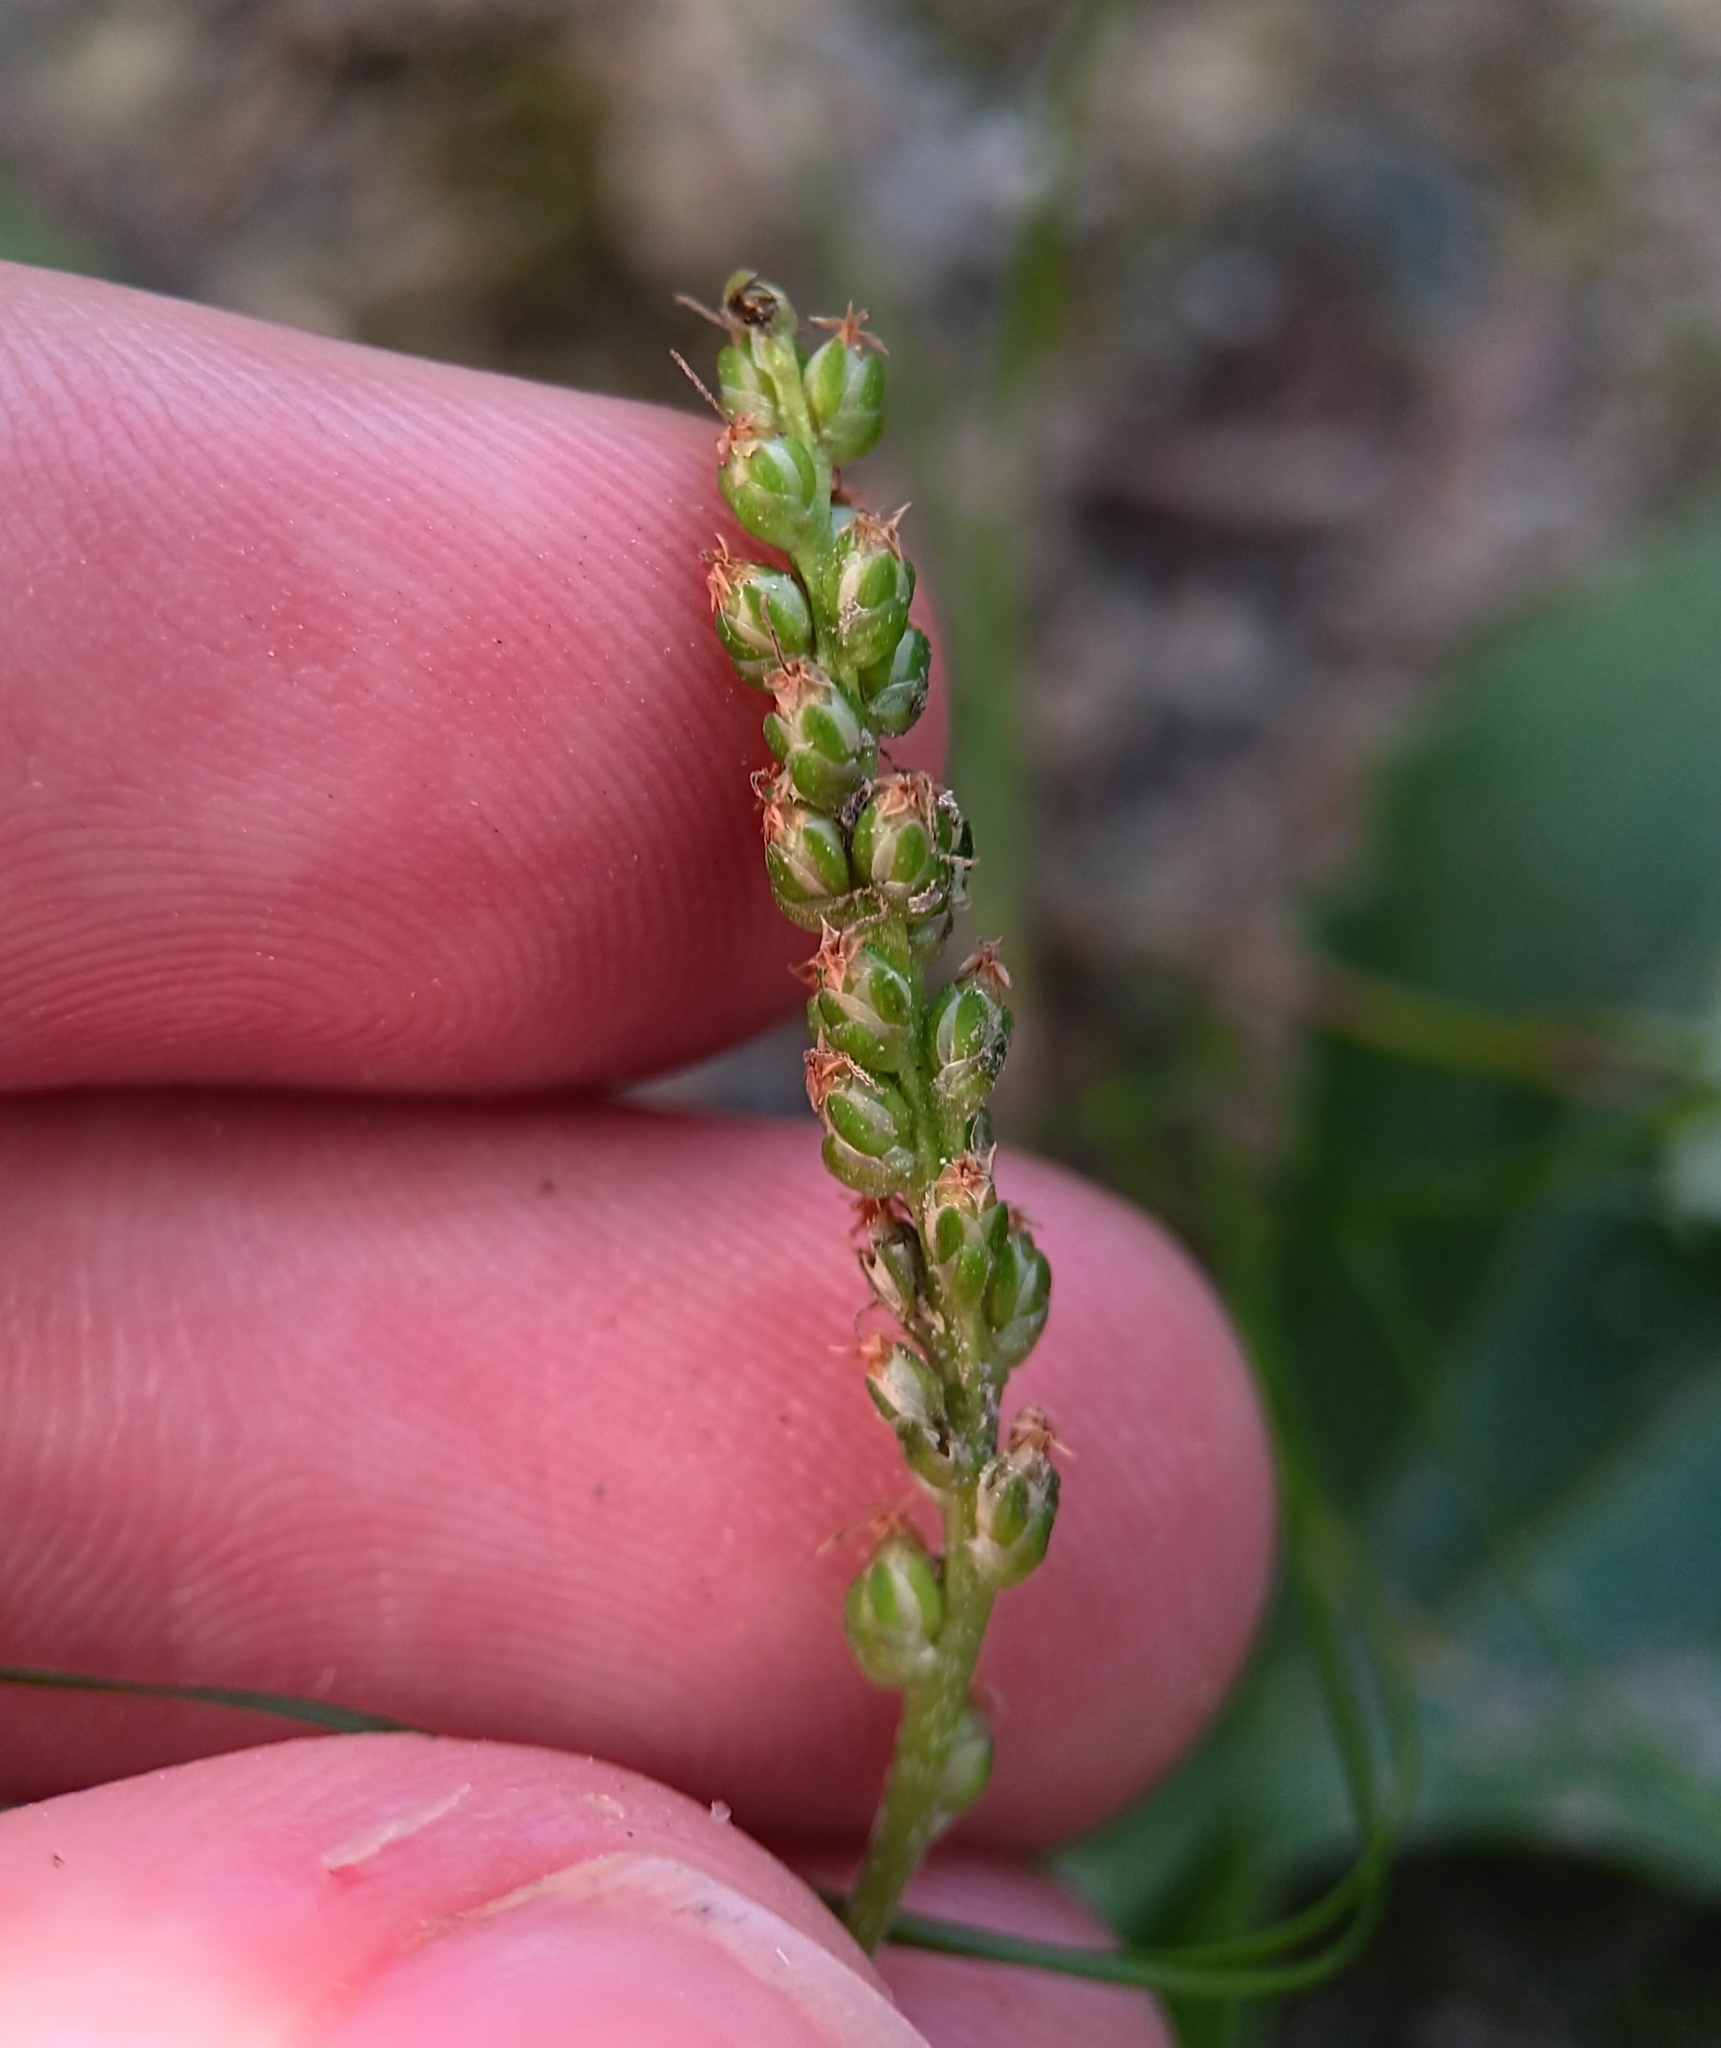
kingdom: Plantae
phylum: Tracheophyta
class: Magnoliopsida
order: Lamiales
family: Plantaginaceae
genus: Plantago
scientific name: Plantago major
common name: Common plantain
